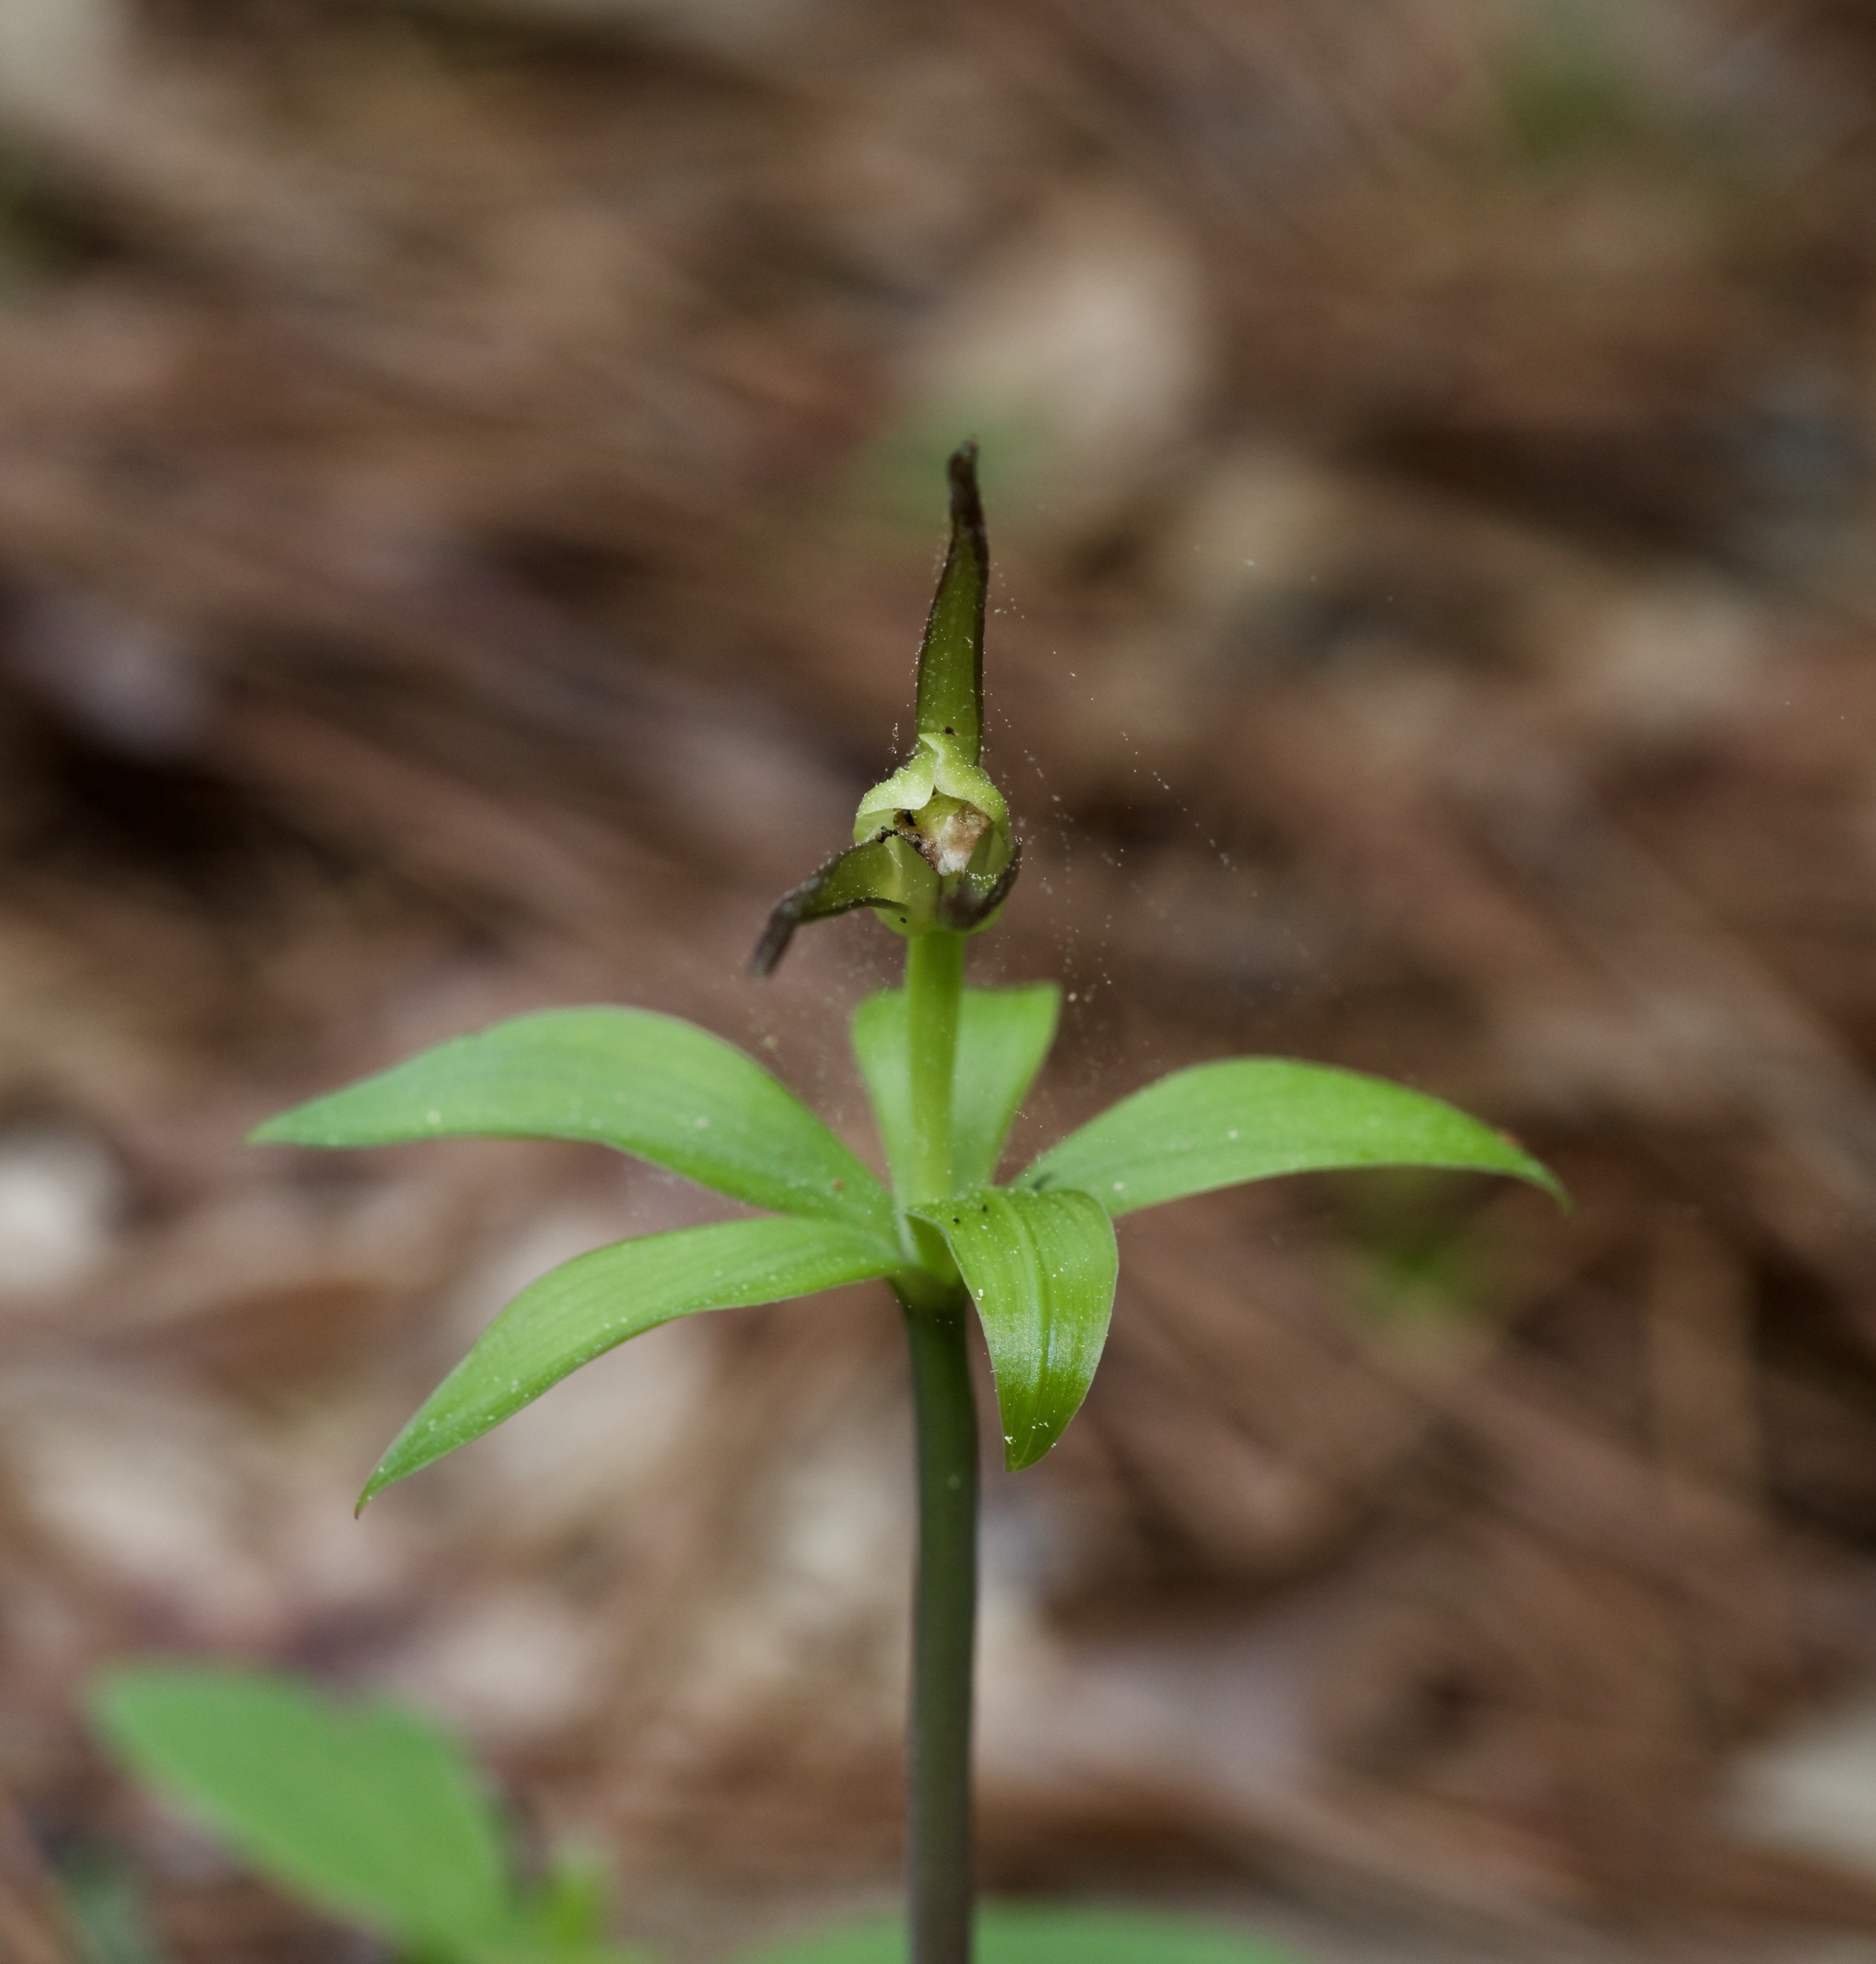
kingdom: Plantae
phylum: Tracheophyta
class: Liliopsida
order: Asparagales
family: Orchidaceae
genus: Isotria
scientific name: Isotria verticillata
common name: Large whorled pogonia
